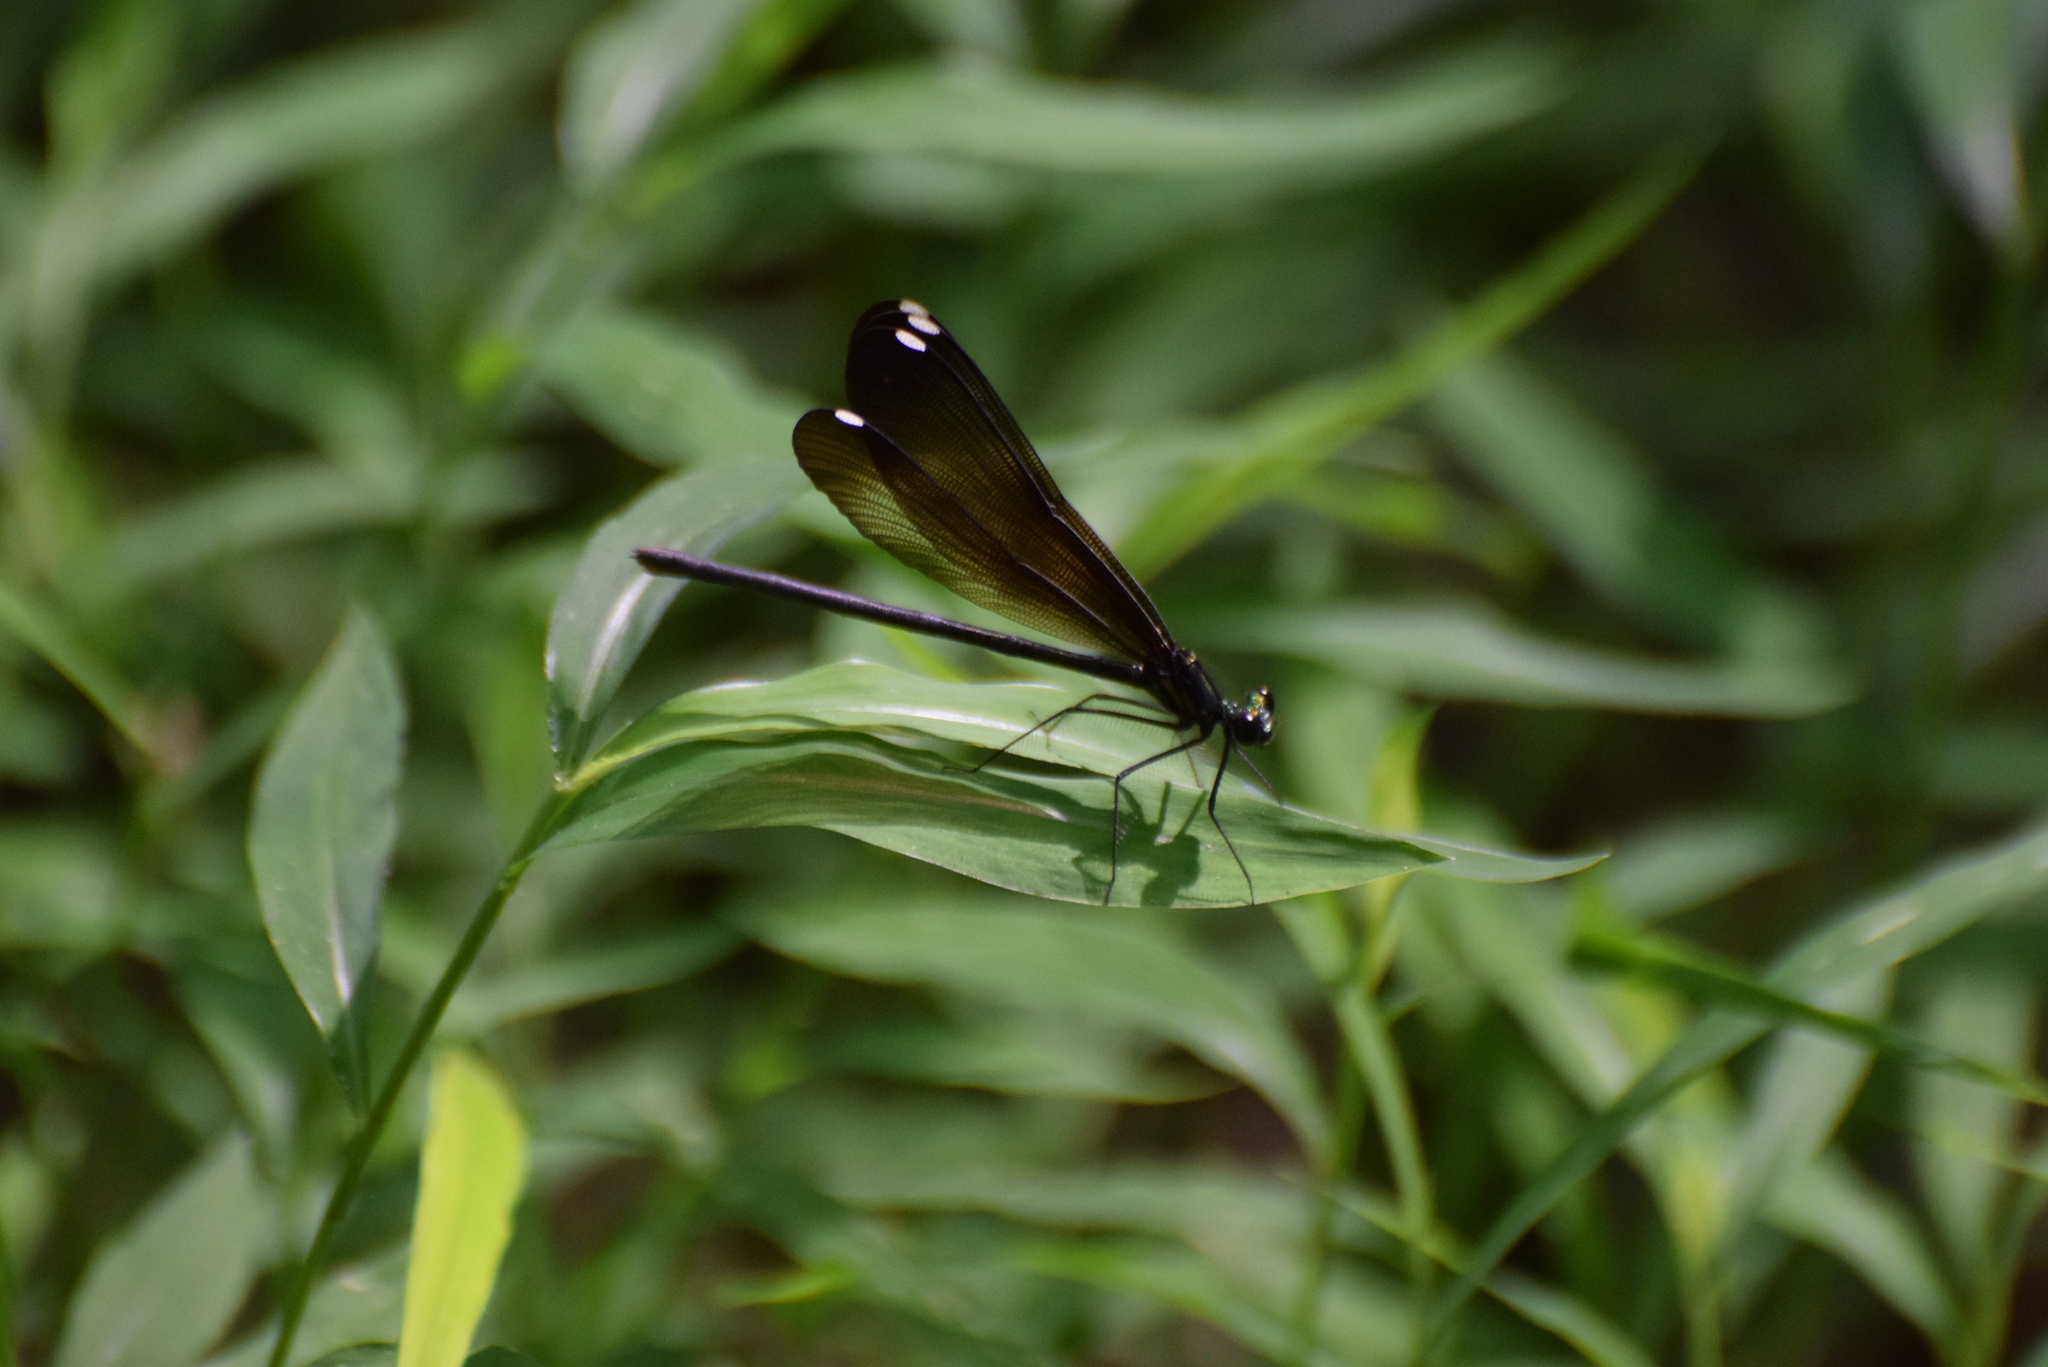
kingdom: Animalia
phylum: Arthropoda
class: Insecta
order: Odonata
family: Calopterygidae
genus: Calopteryx
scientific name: Calopteryx maculata
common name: Ebony jewelwing
